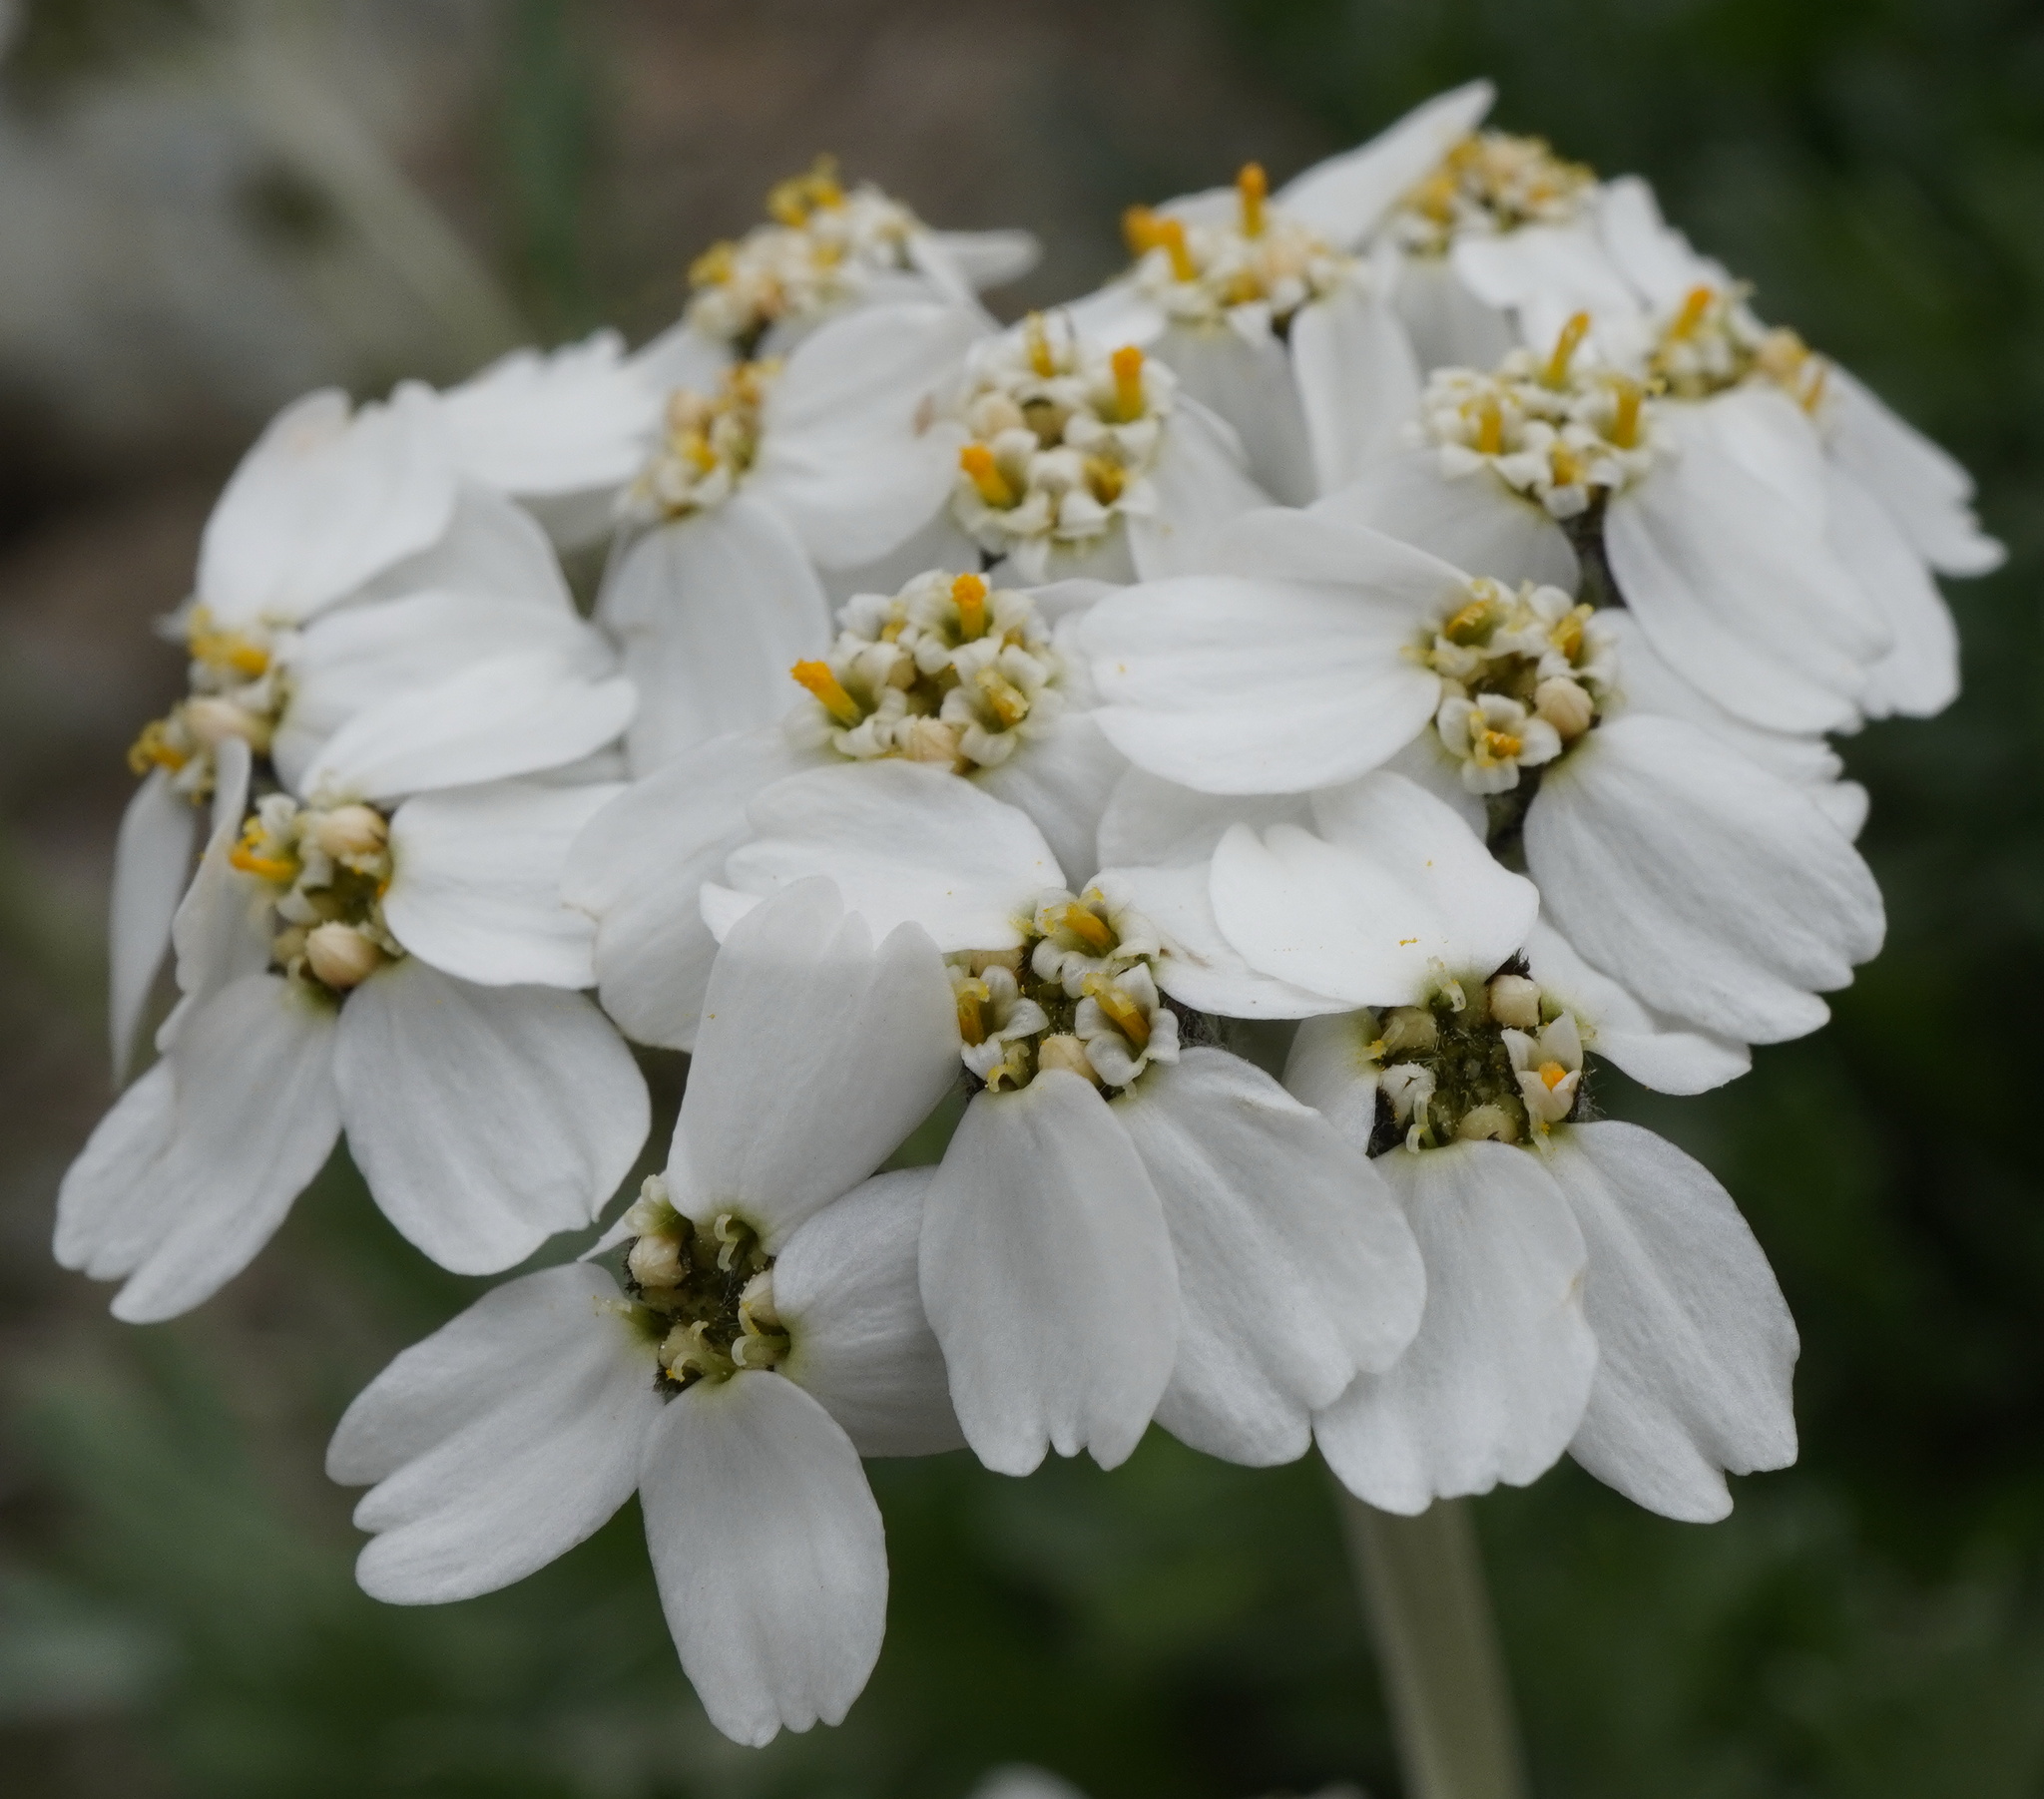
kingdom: Plantae
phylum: Tracheophyta
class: Magnoliopsida
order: Asterales
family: Asteraceae
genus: Achillea
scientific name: Achillea clavennae
